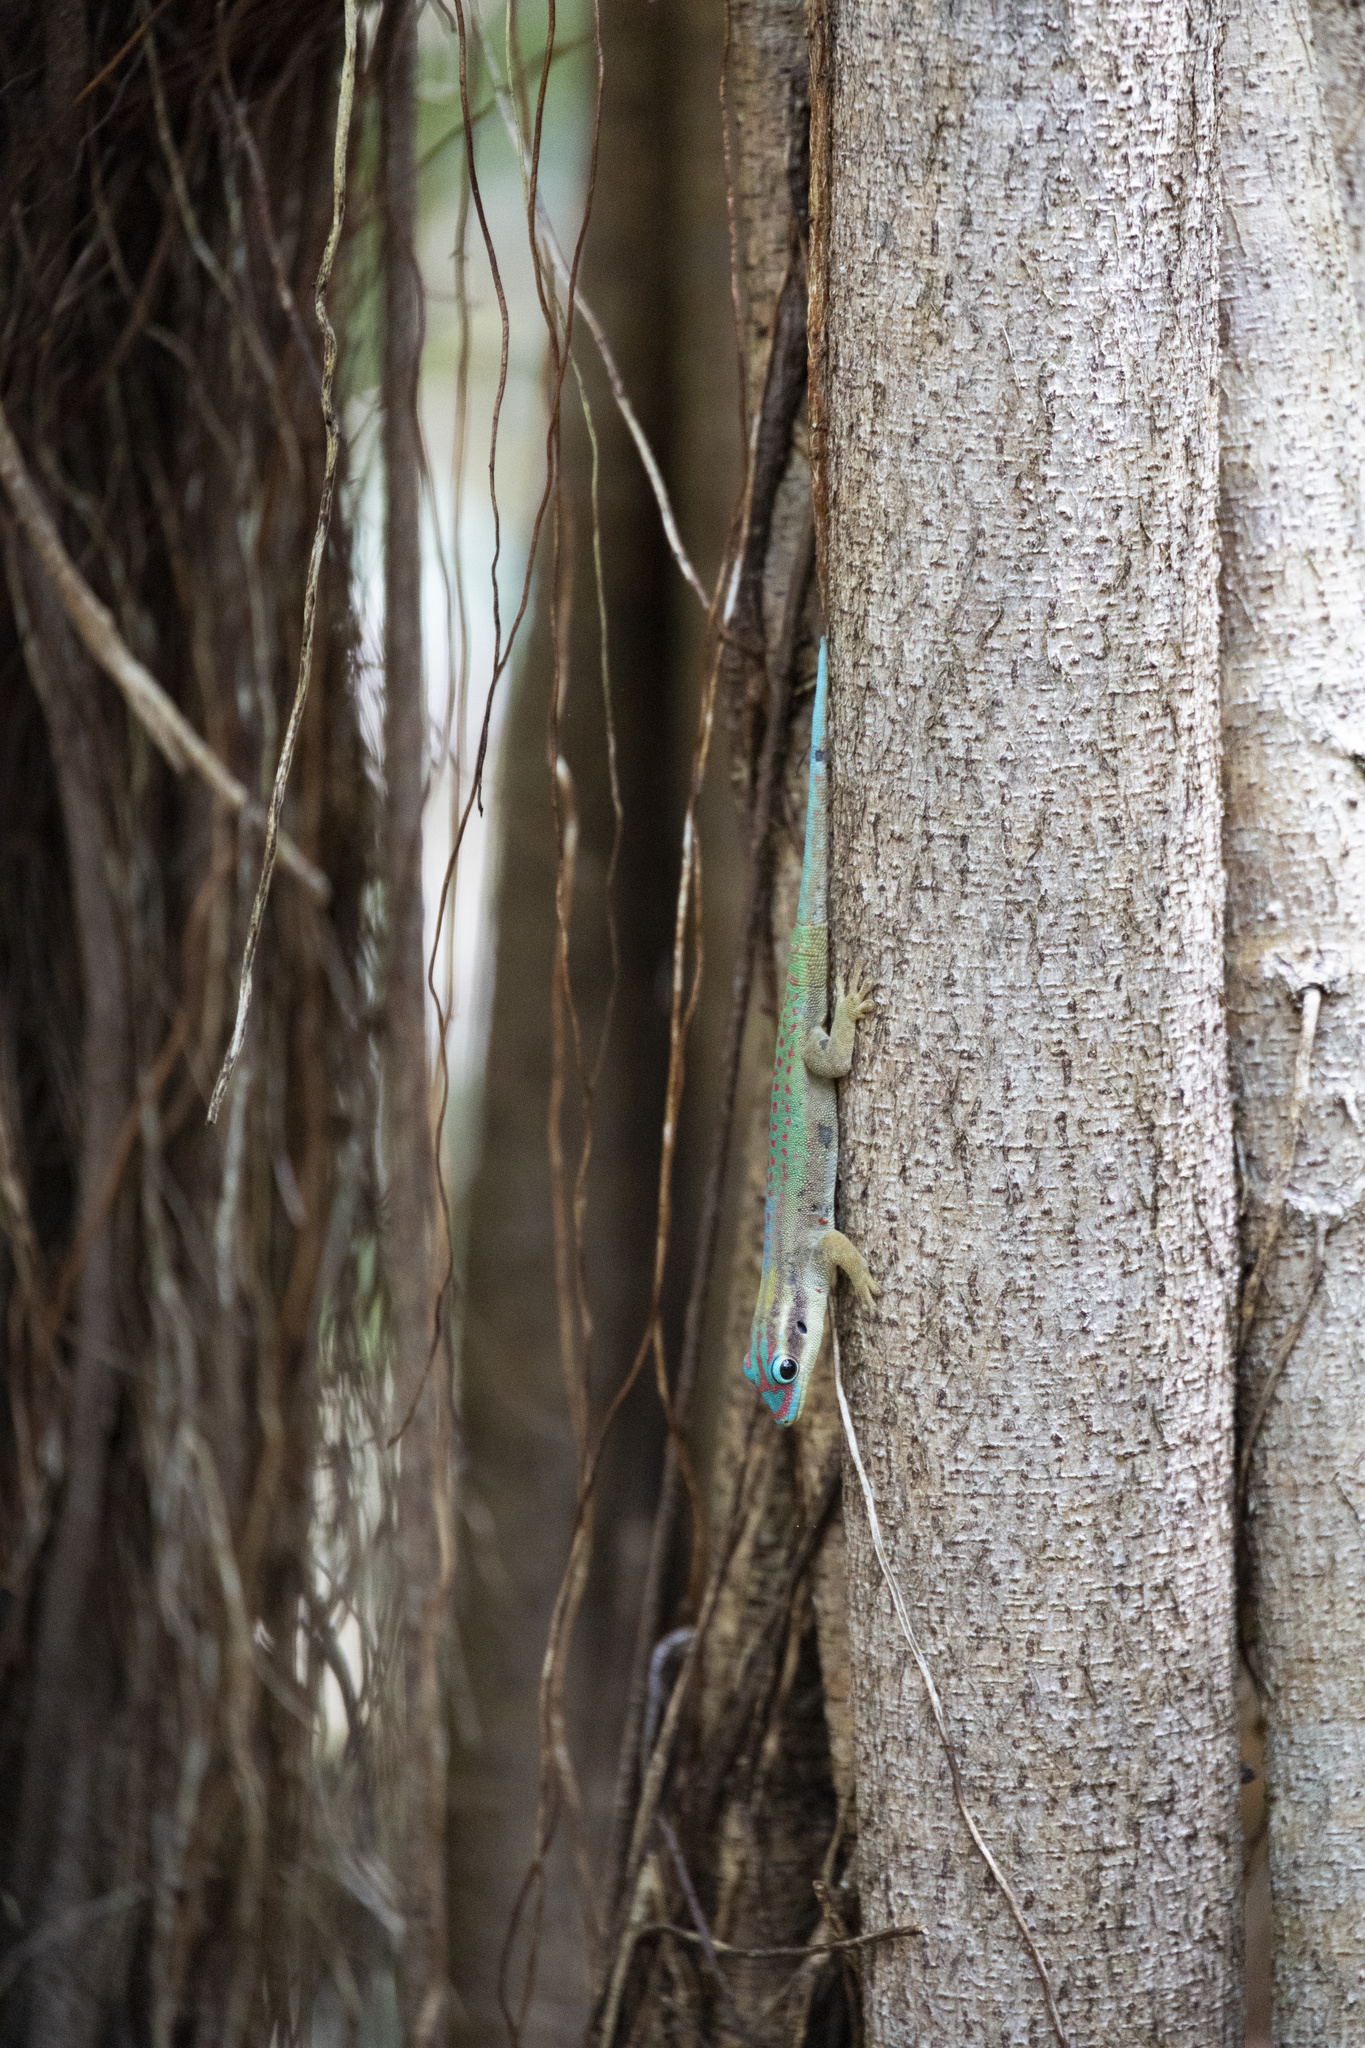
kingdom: Animalia
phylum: Chordata
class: Squamata
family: Gekkonidae
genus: Phelsuma
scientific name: Phelsuma ornata
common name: Ornate day gecko
